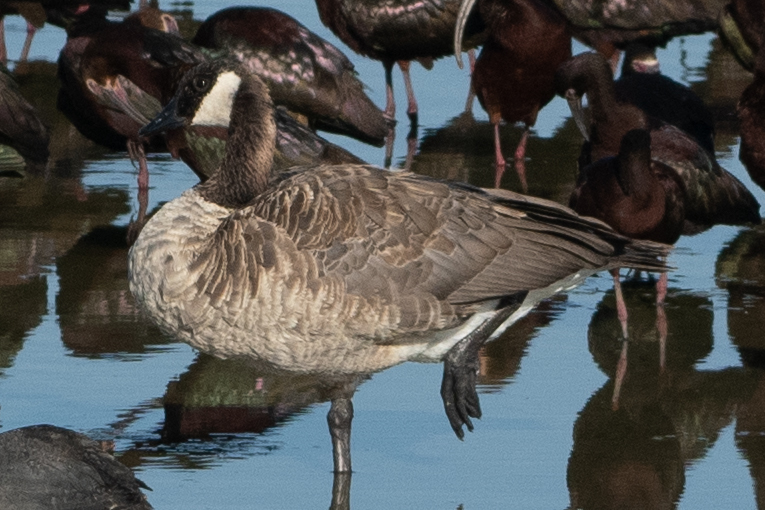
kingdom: Animalia
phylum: Chordata
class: Aves
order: Anseriformes
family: Anatidae
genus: Branta
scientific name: Branta canadensis
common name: Canada goose
